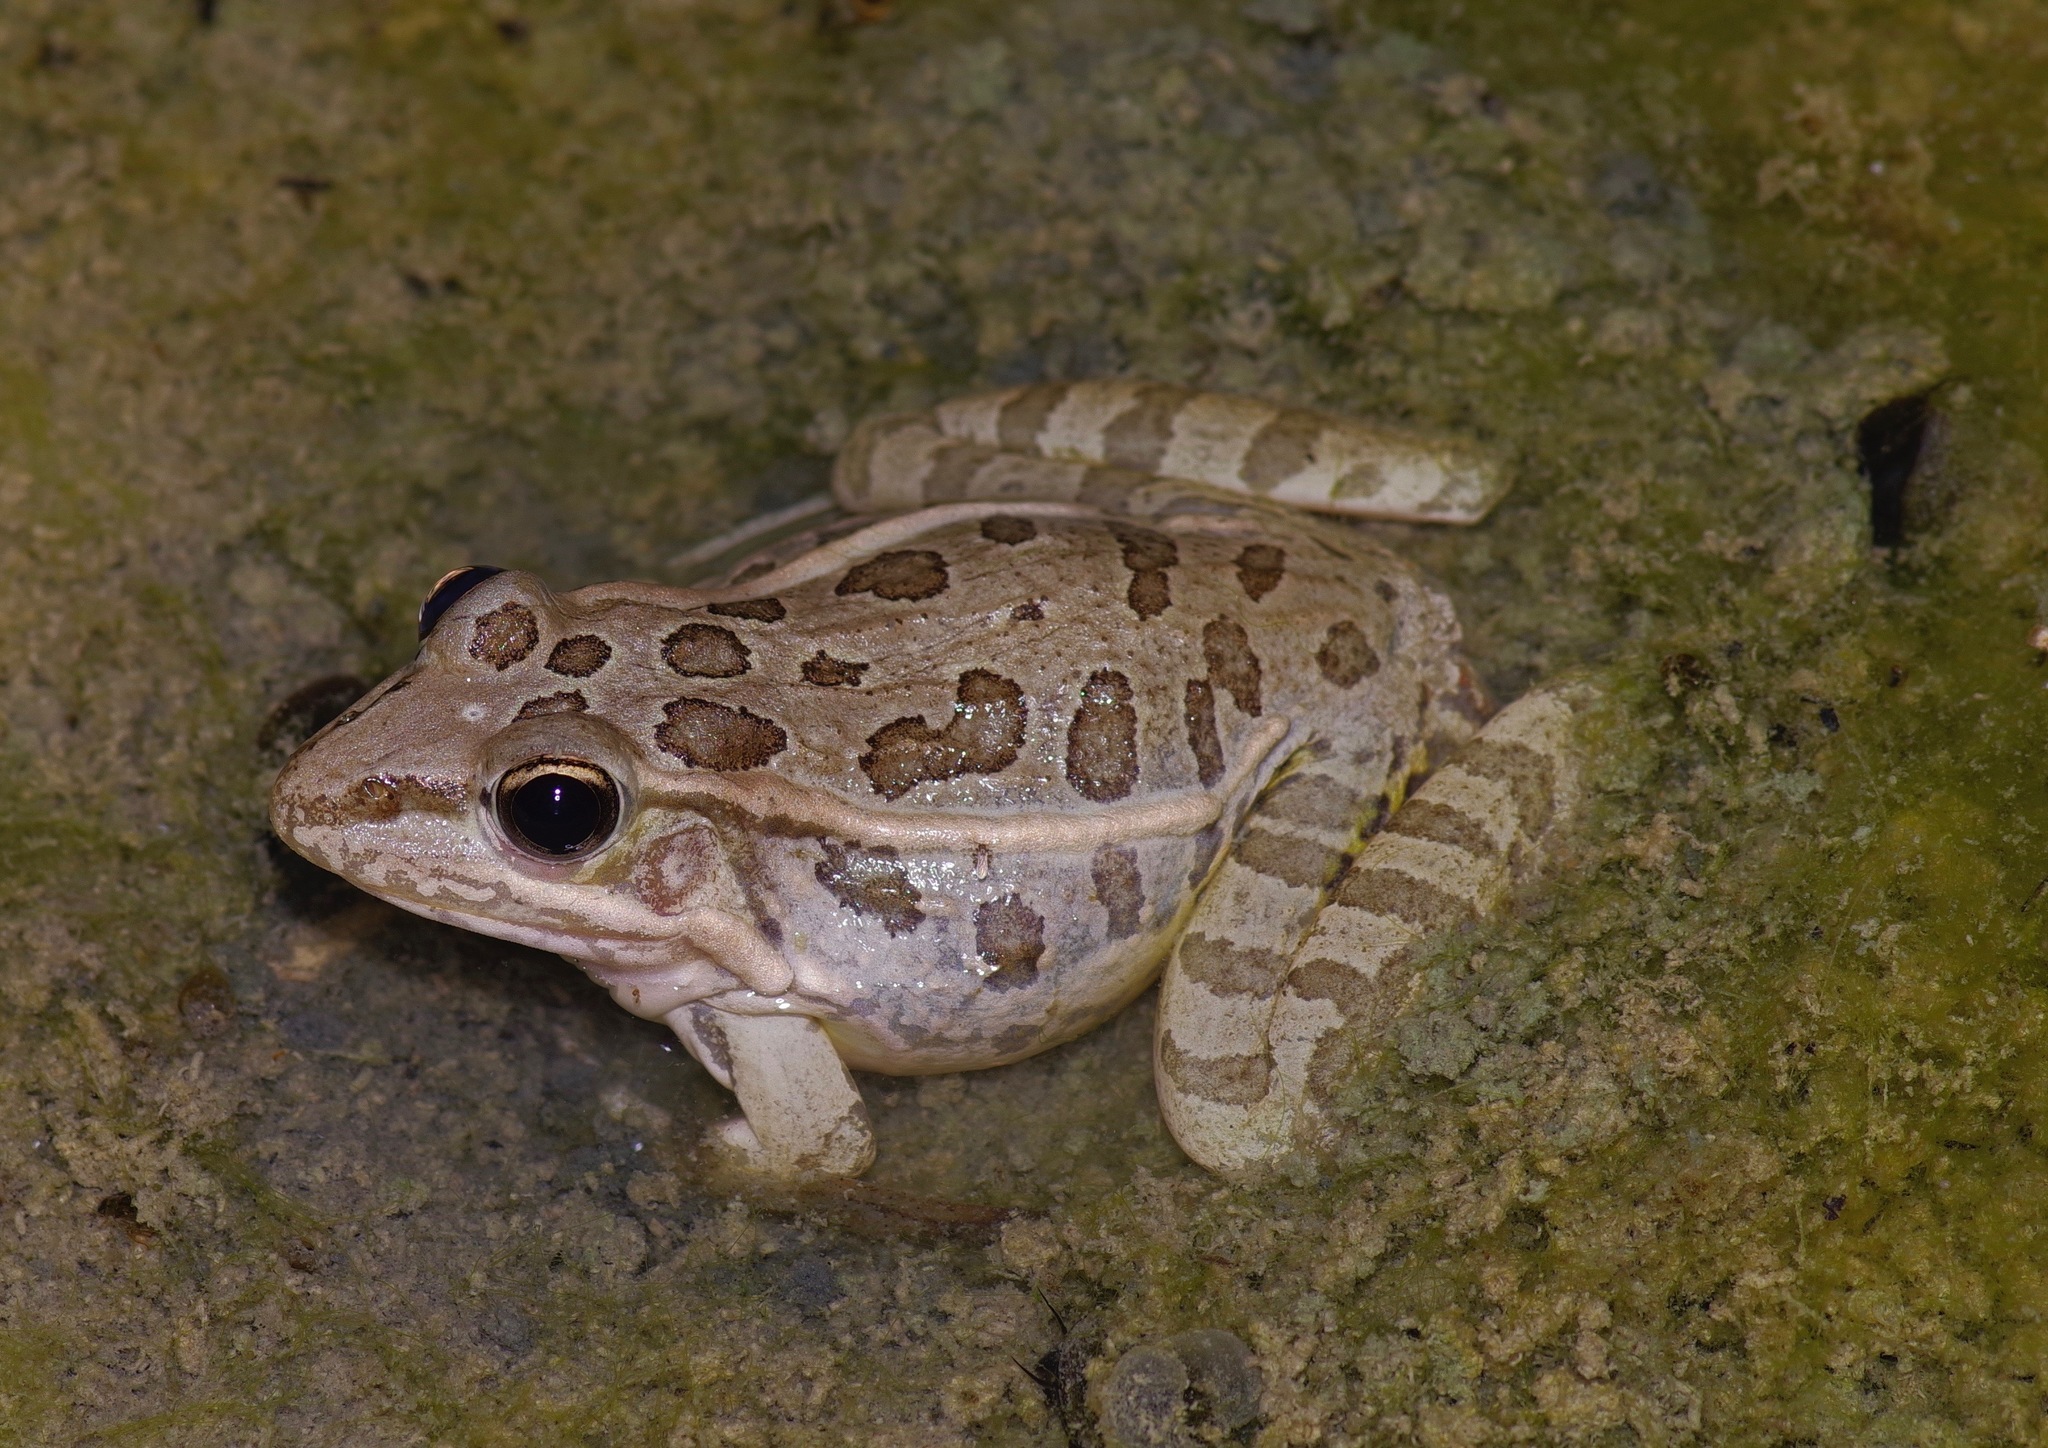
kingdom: Animalia
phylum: Chordata
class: Amphibia
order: Anura
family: Ranidae
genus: Lithobates
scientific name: Lithobates berlandieri
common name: Rio grande leopard frog
